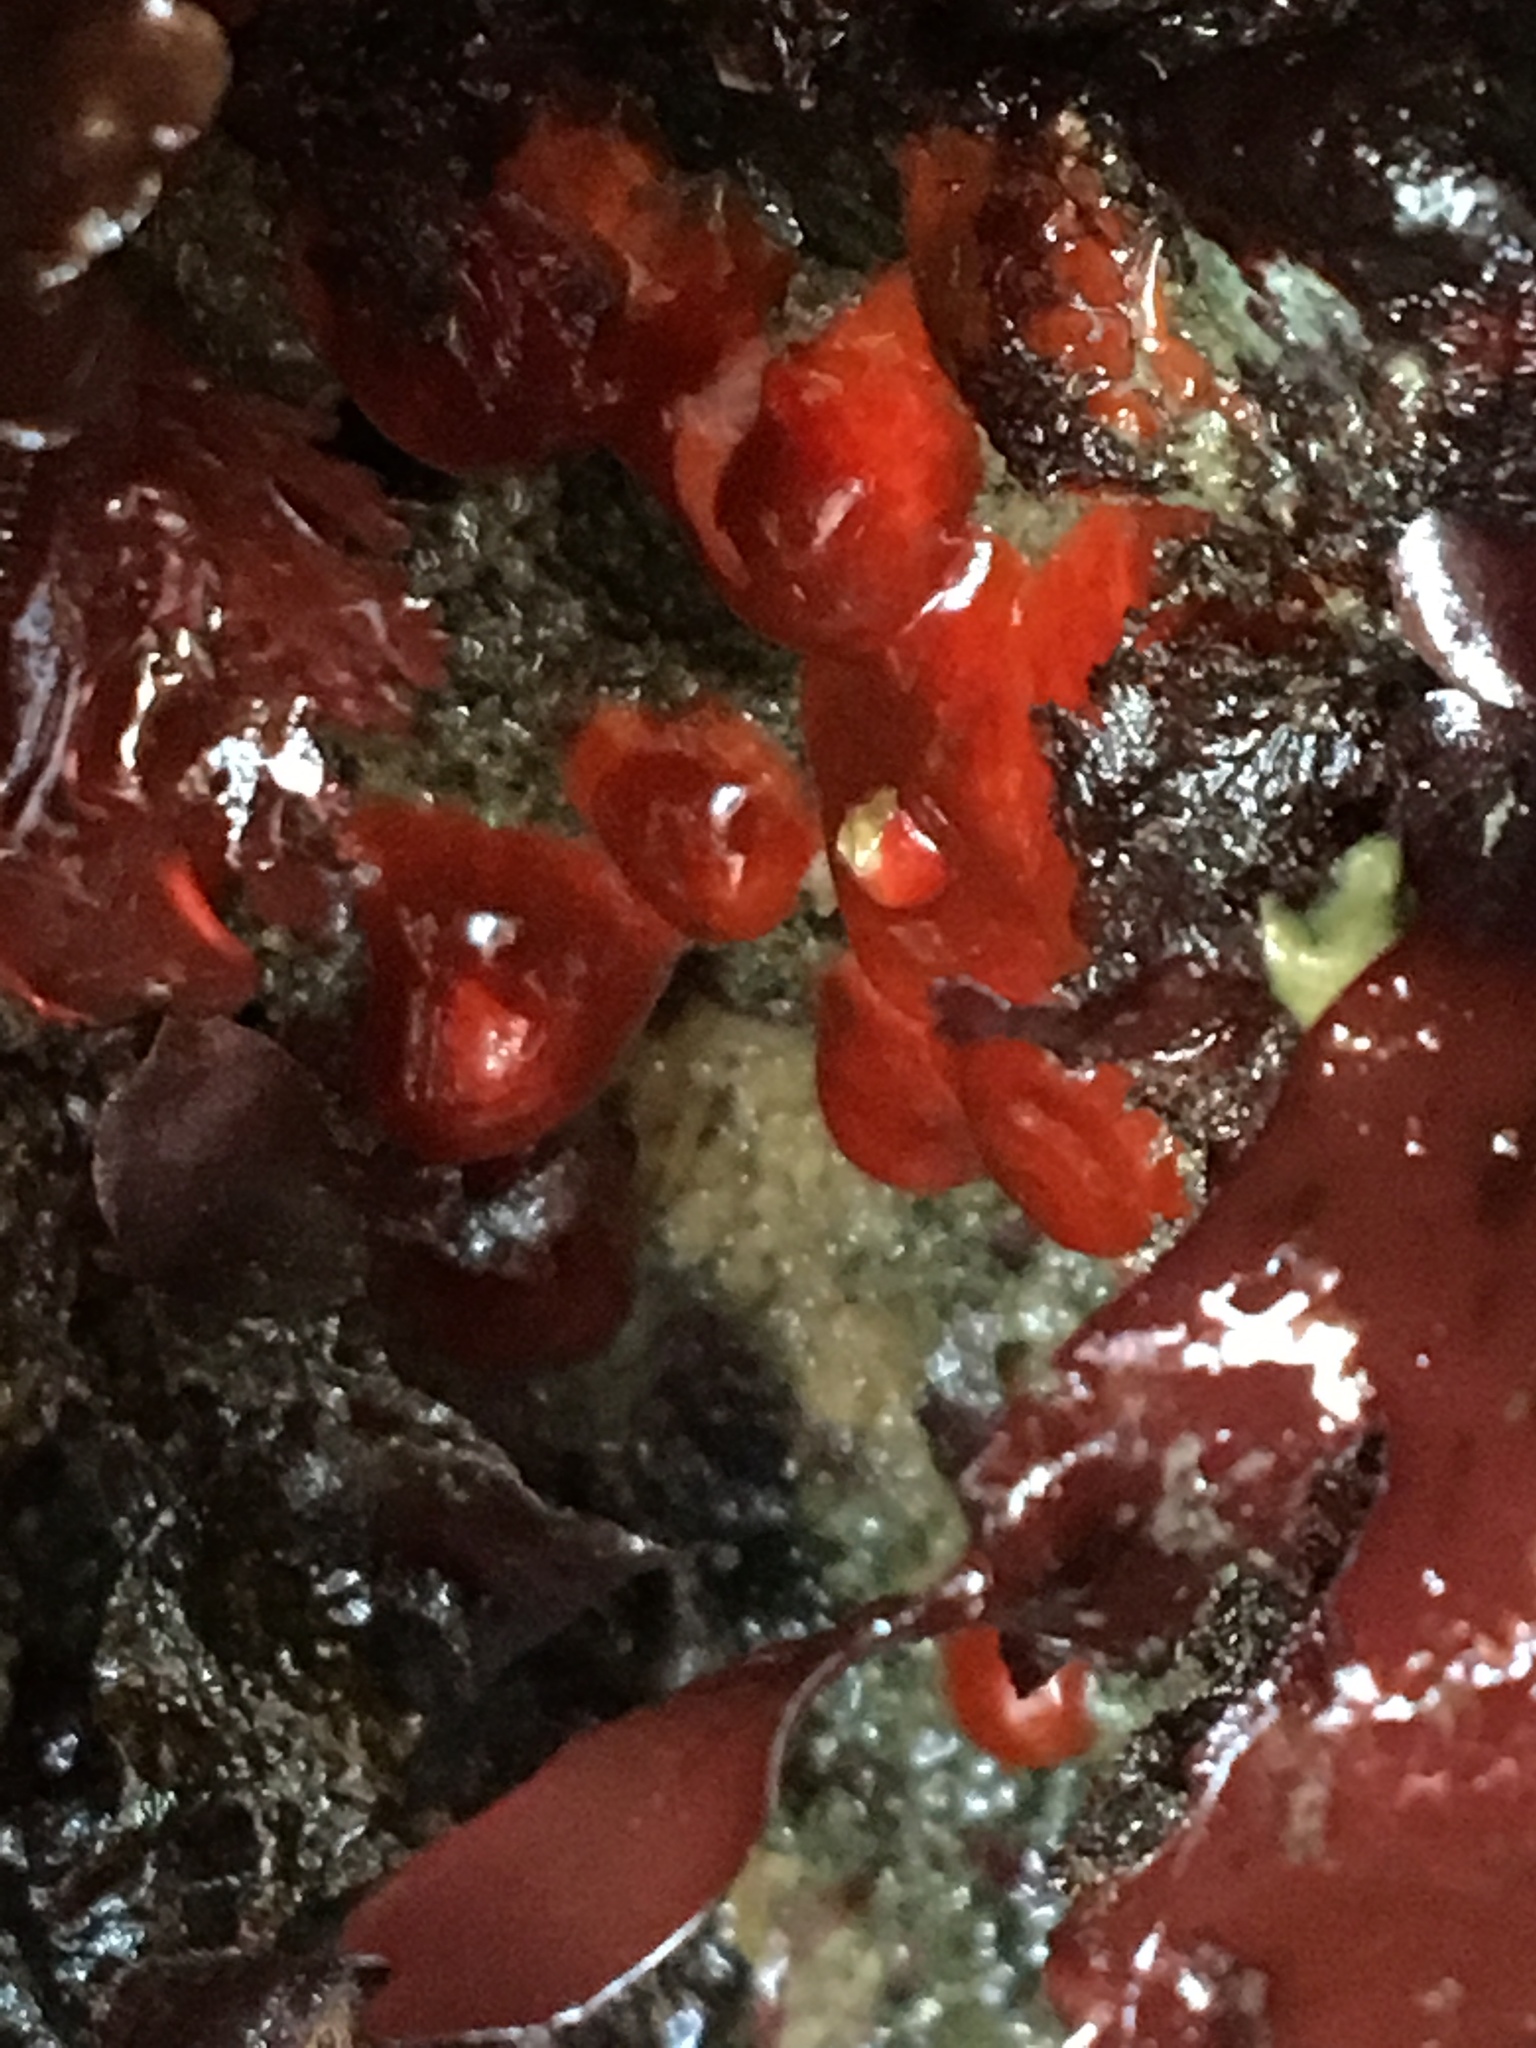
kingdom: Animalia
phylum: Cnidaria
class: Anthozoa
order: Corallimorpharia
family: Corallimorphidae
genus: Corynactis
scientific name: Corynactis californica
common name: Strawberry corallimorpharian
